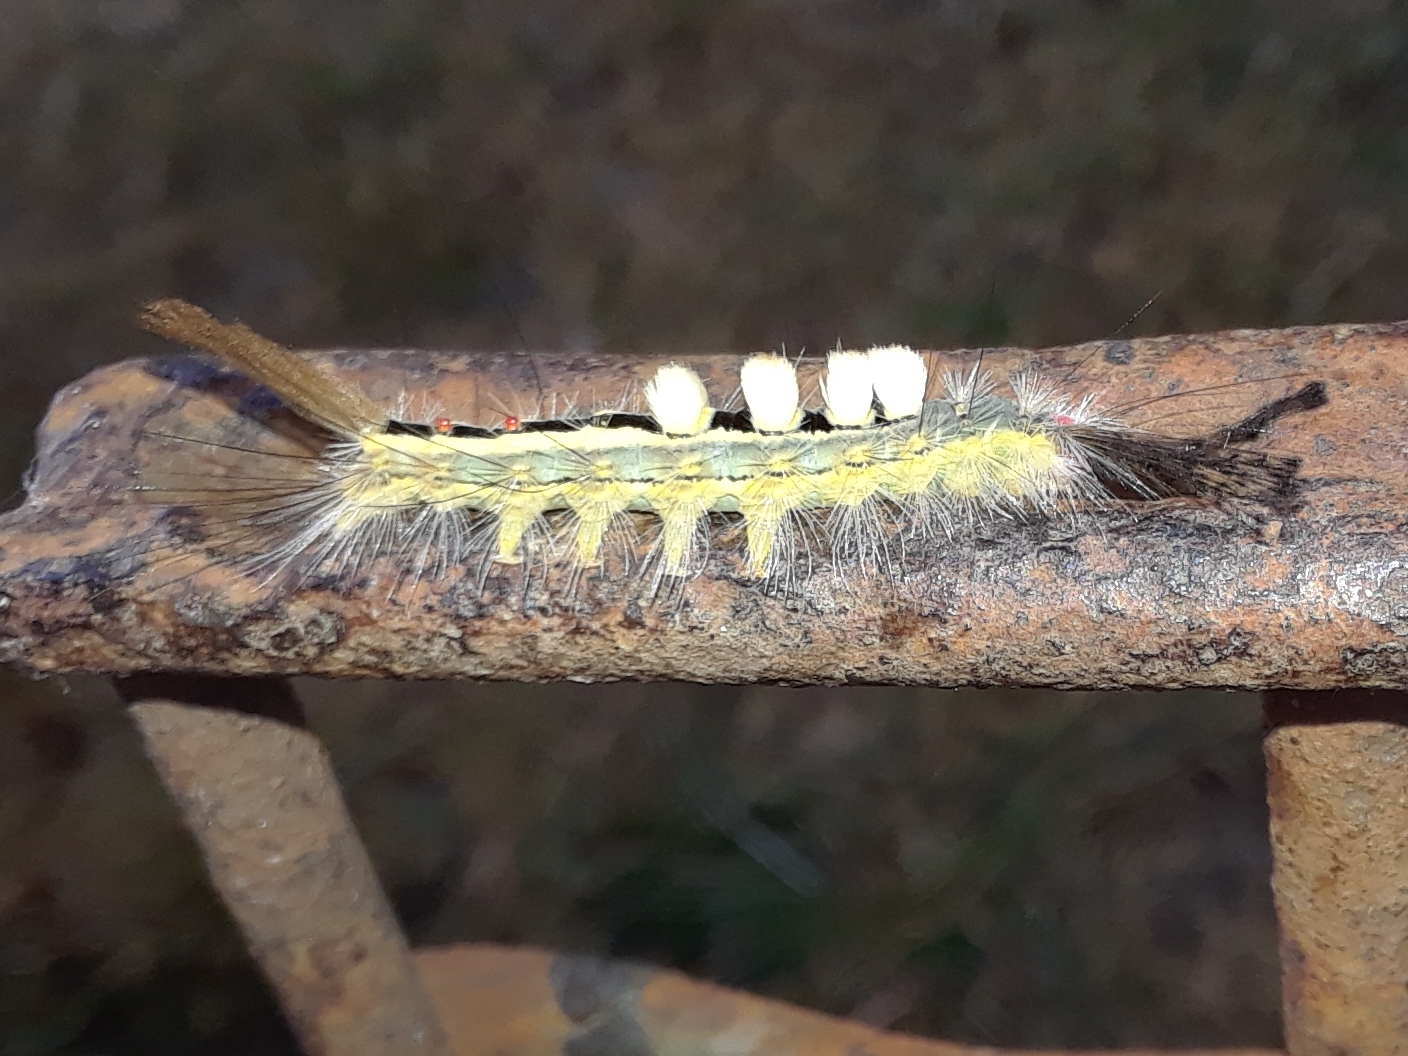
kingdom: Animalia
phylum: Arthropoda
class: Insecta
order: Lepidoptera
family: Erebidae
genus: Orgyia
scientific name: Orgyia leucostigma
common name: White-marked tussock moth
